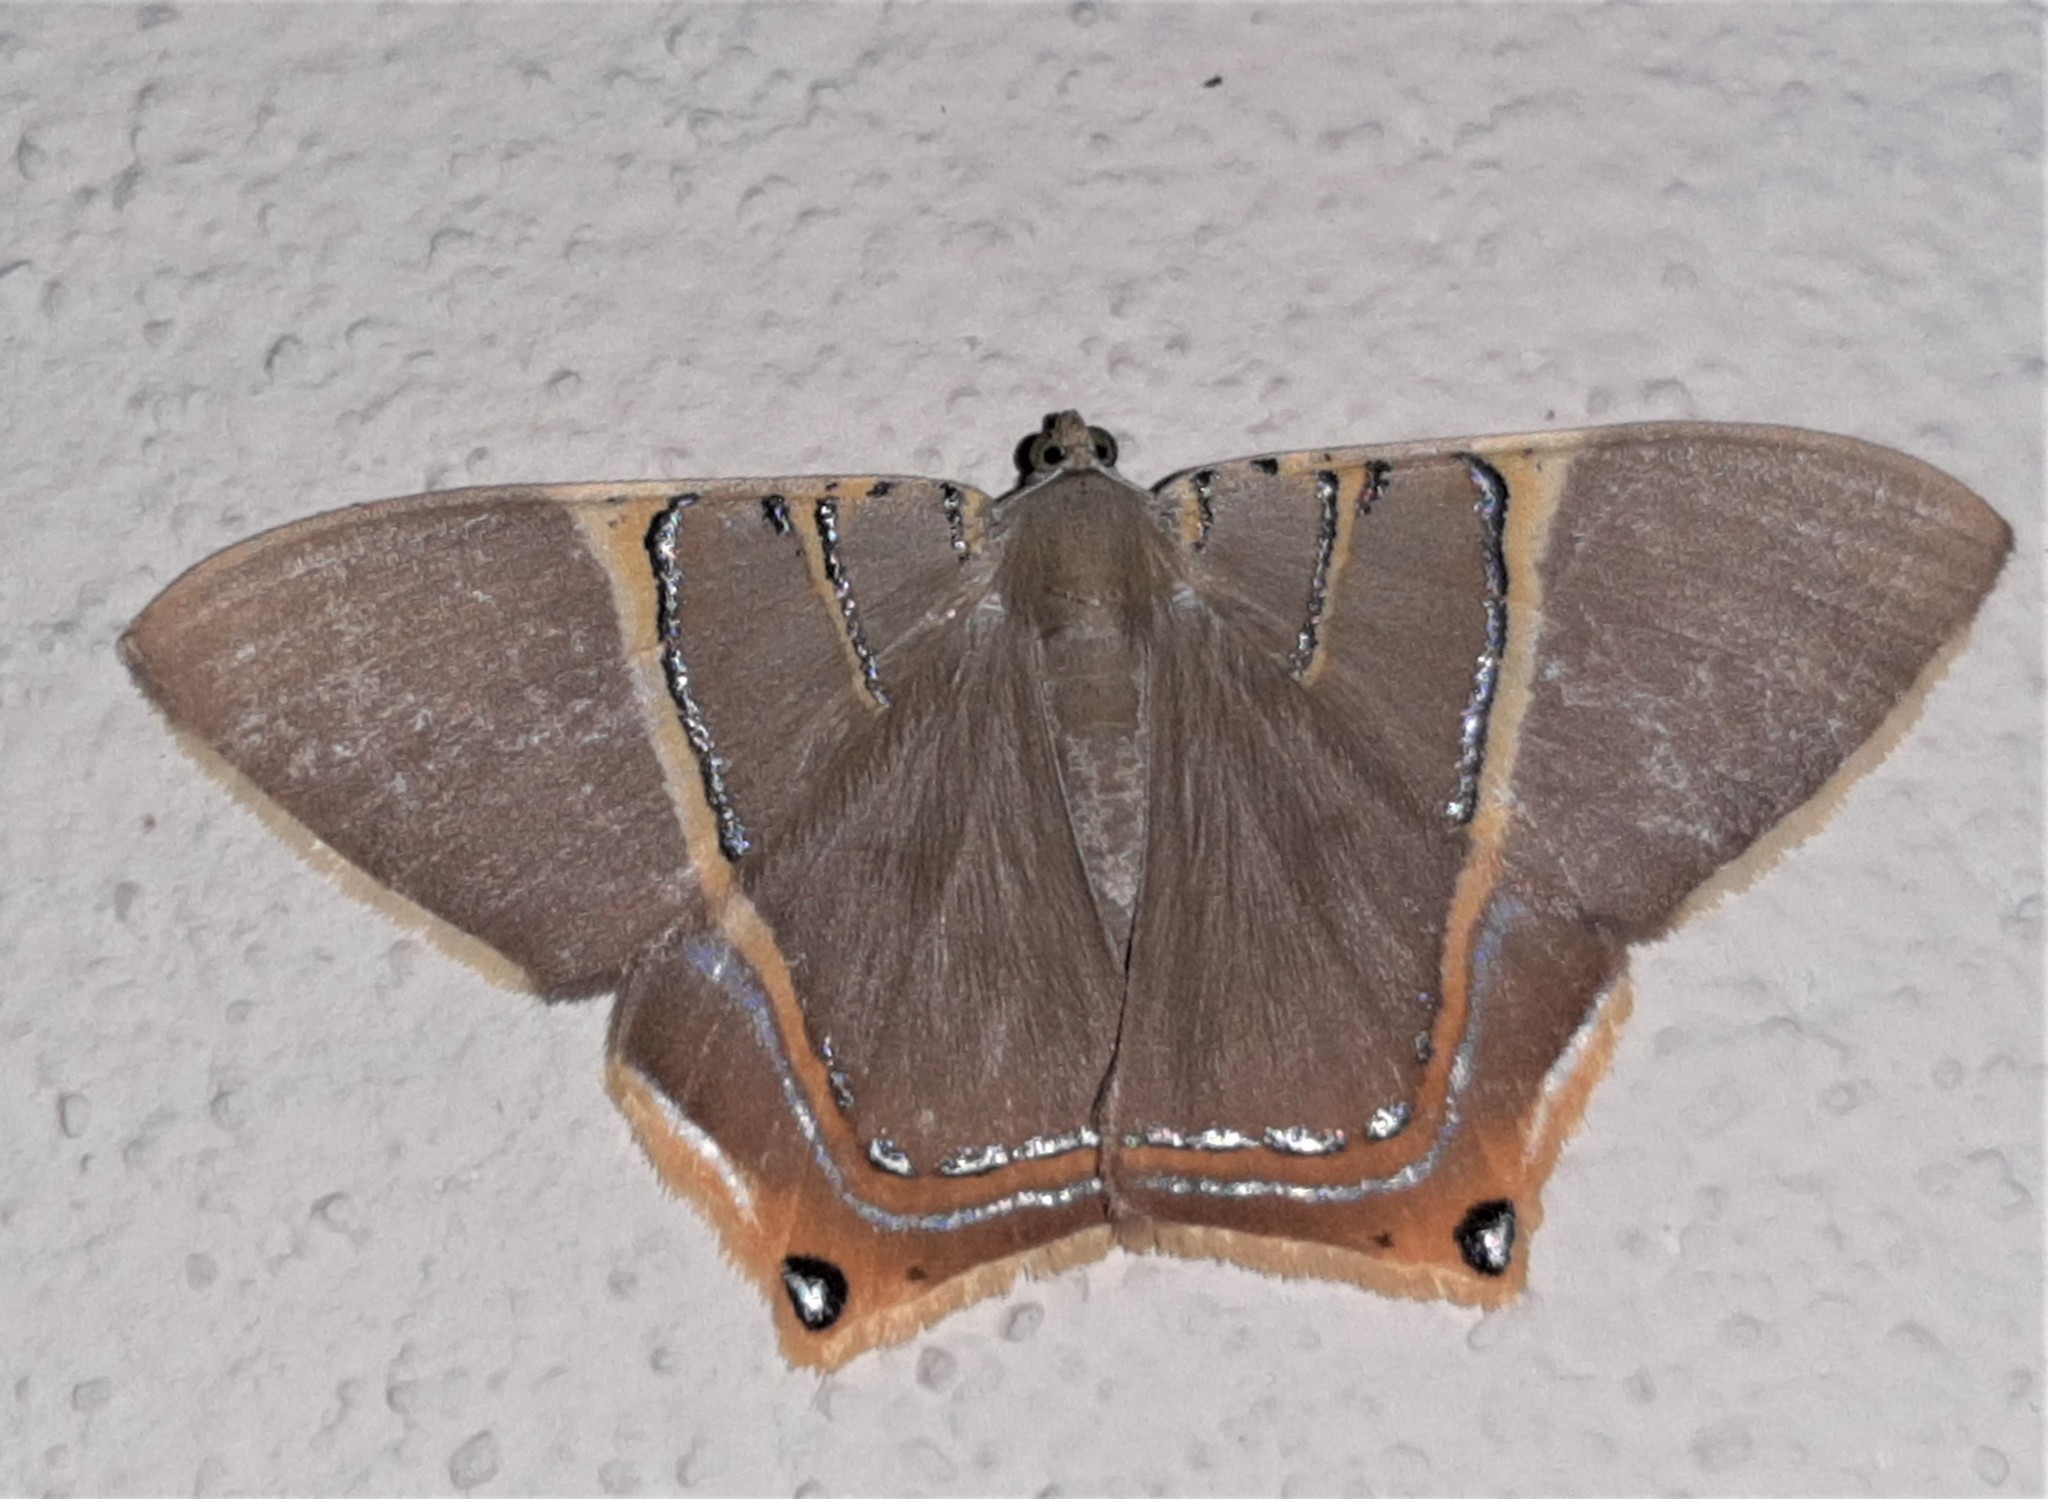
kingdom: Animalia
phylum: Arthropoda
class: Insecta
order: Lepidoptera
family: Geometridae
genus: Phrygionis
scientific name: Phrygionis polita
